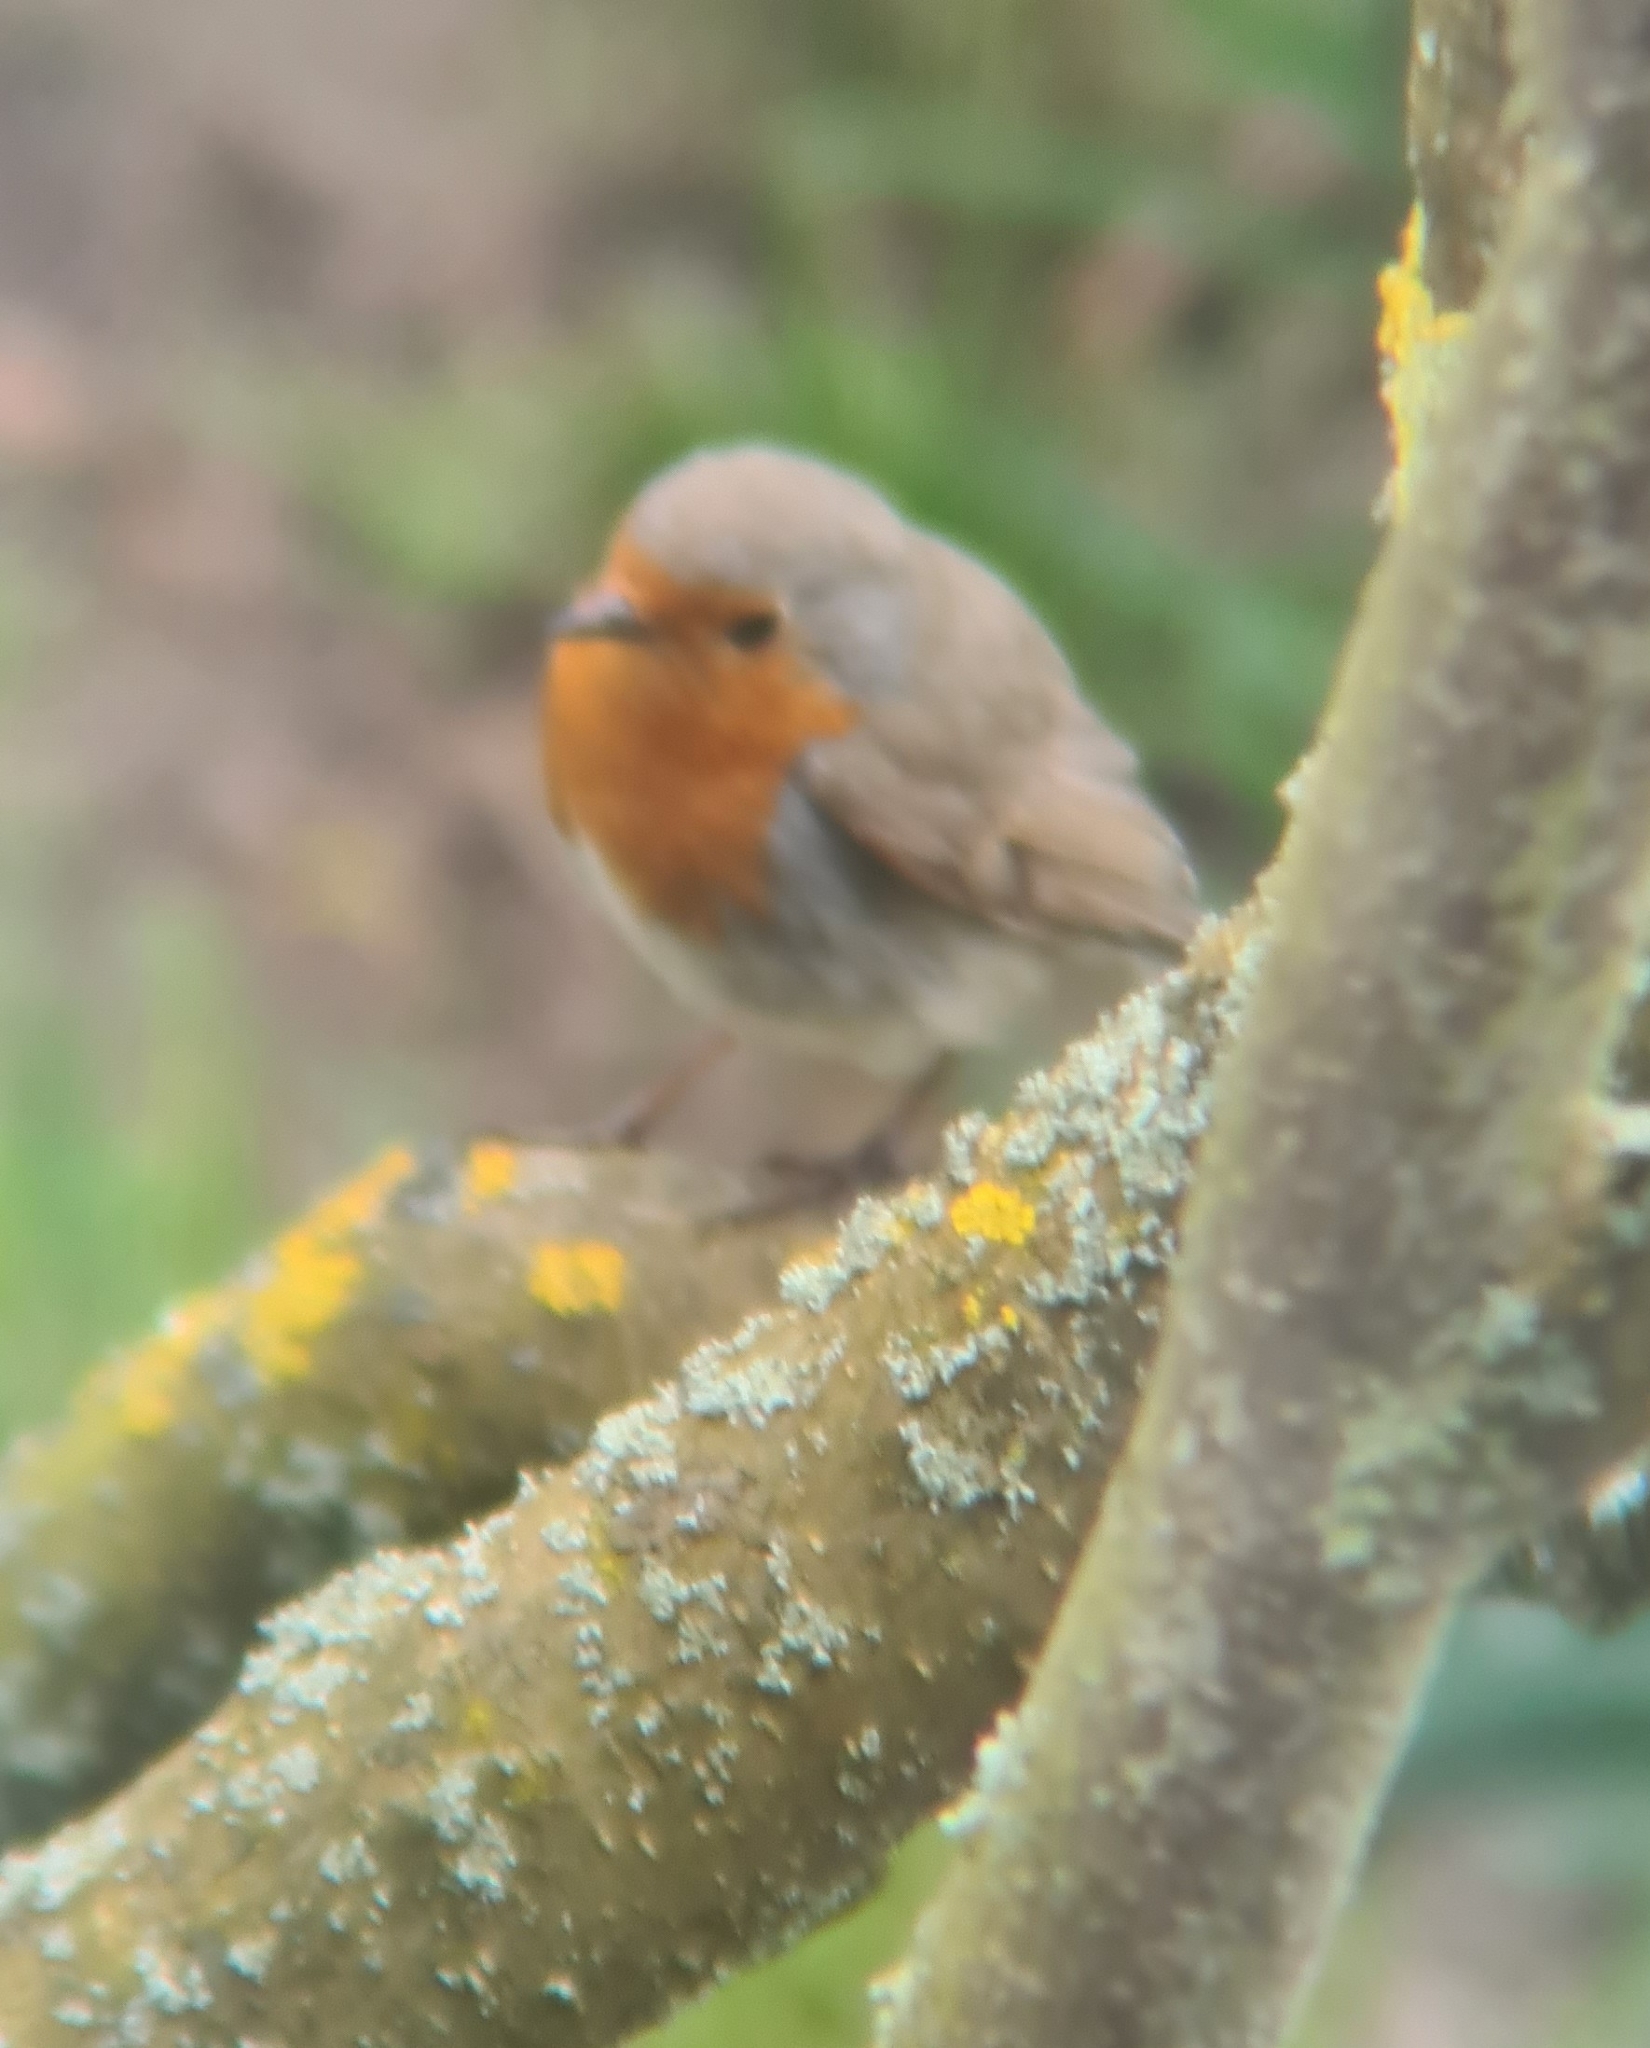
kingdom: Animalia
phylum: Chordata
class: Aves
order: Passeriformes
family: Muscicapidae
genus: Erithacus
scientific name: Erithacus rubecula
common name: European robin
